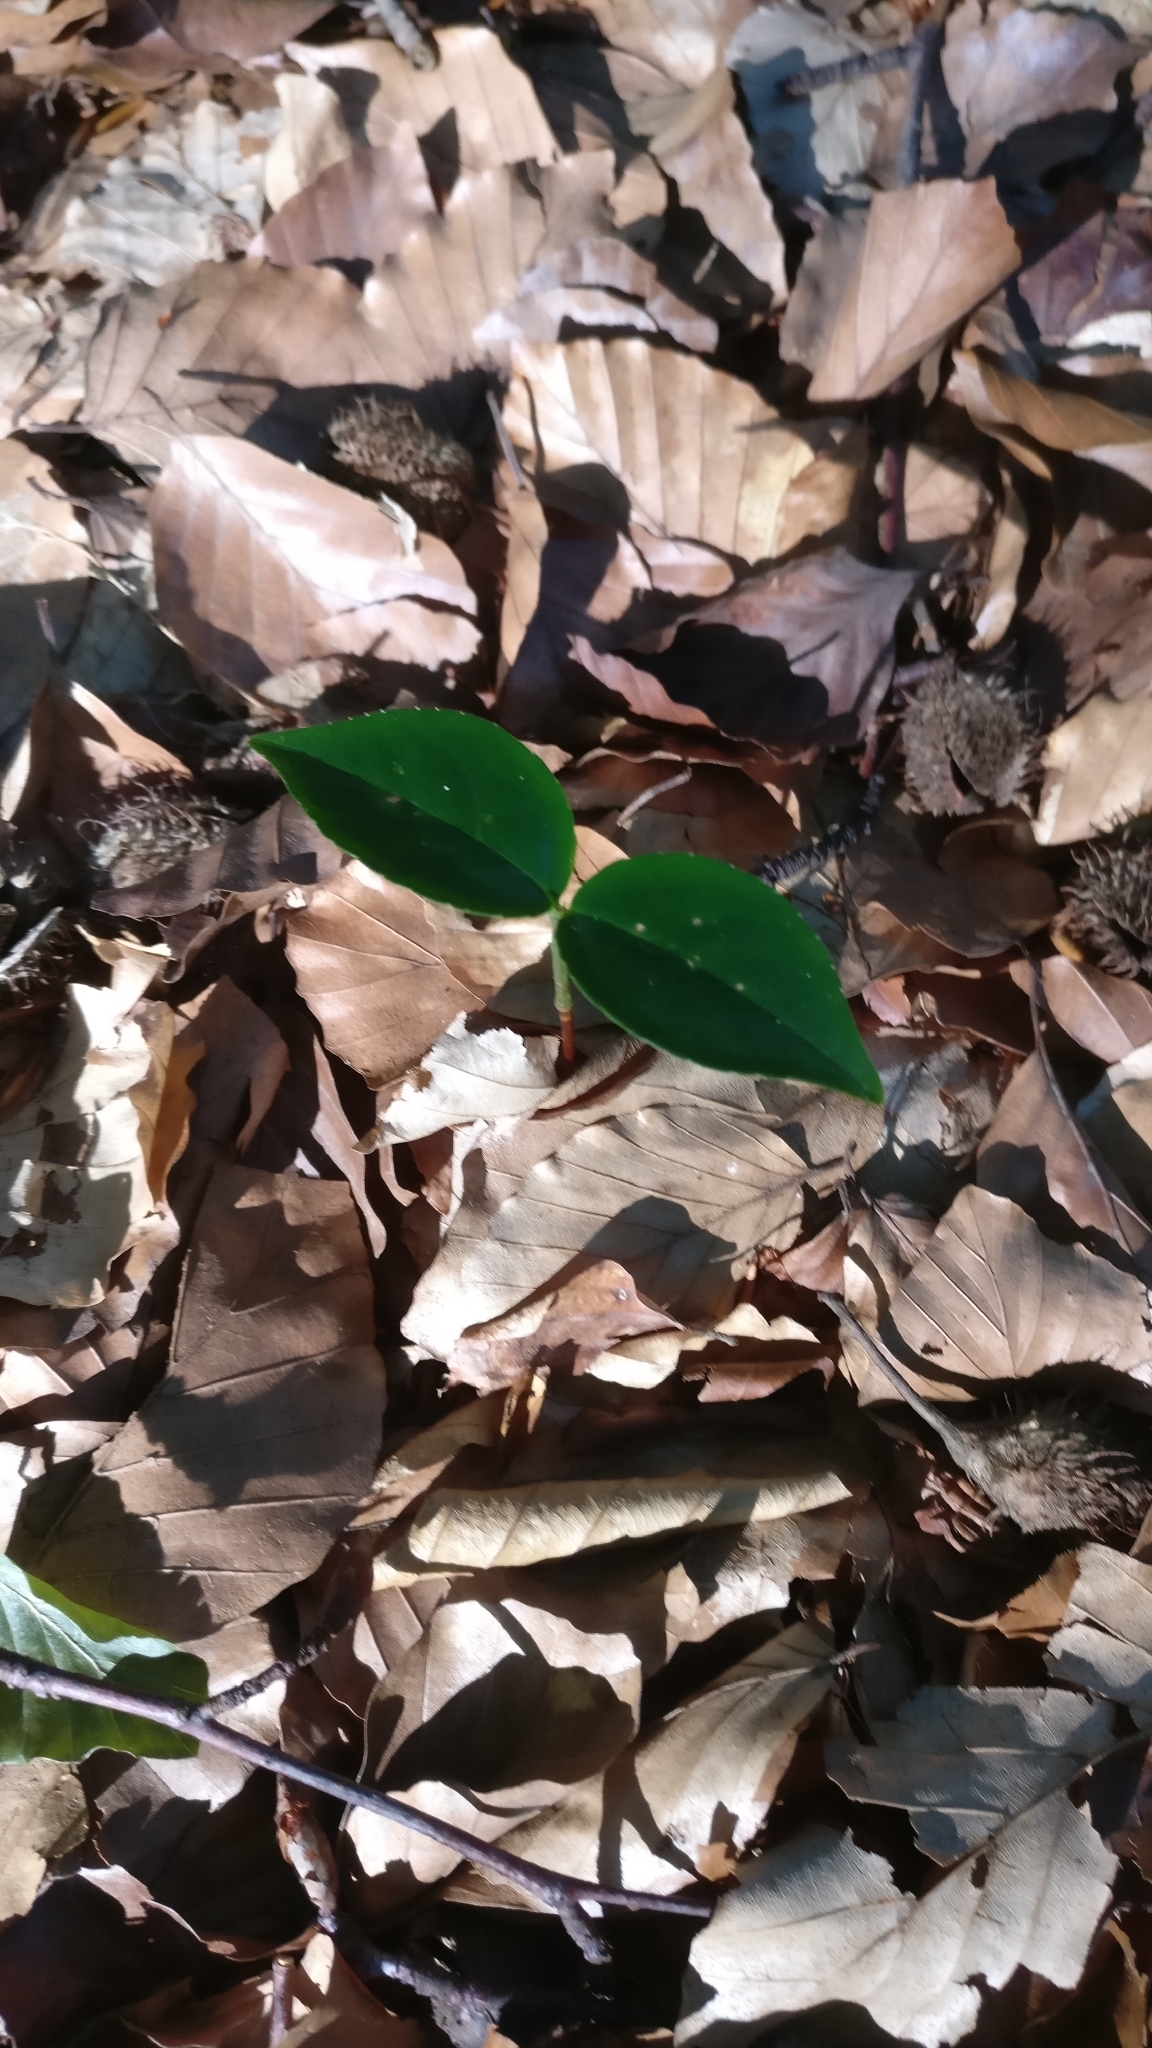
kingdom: Plantae
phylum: Tracheophyta
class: Magnoliopsida
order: Rosales
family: Rosaceae
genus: Prunus
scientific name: Prunus serotina
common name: Black cherry
